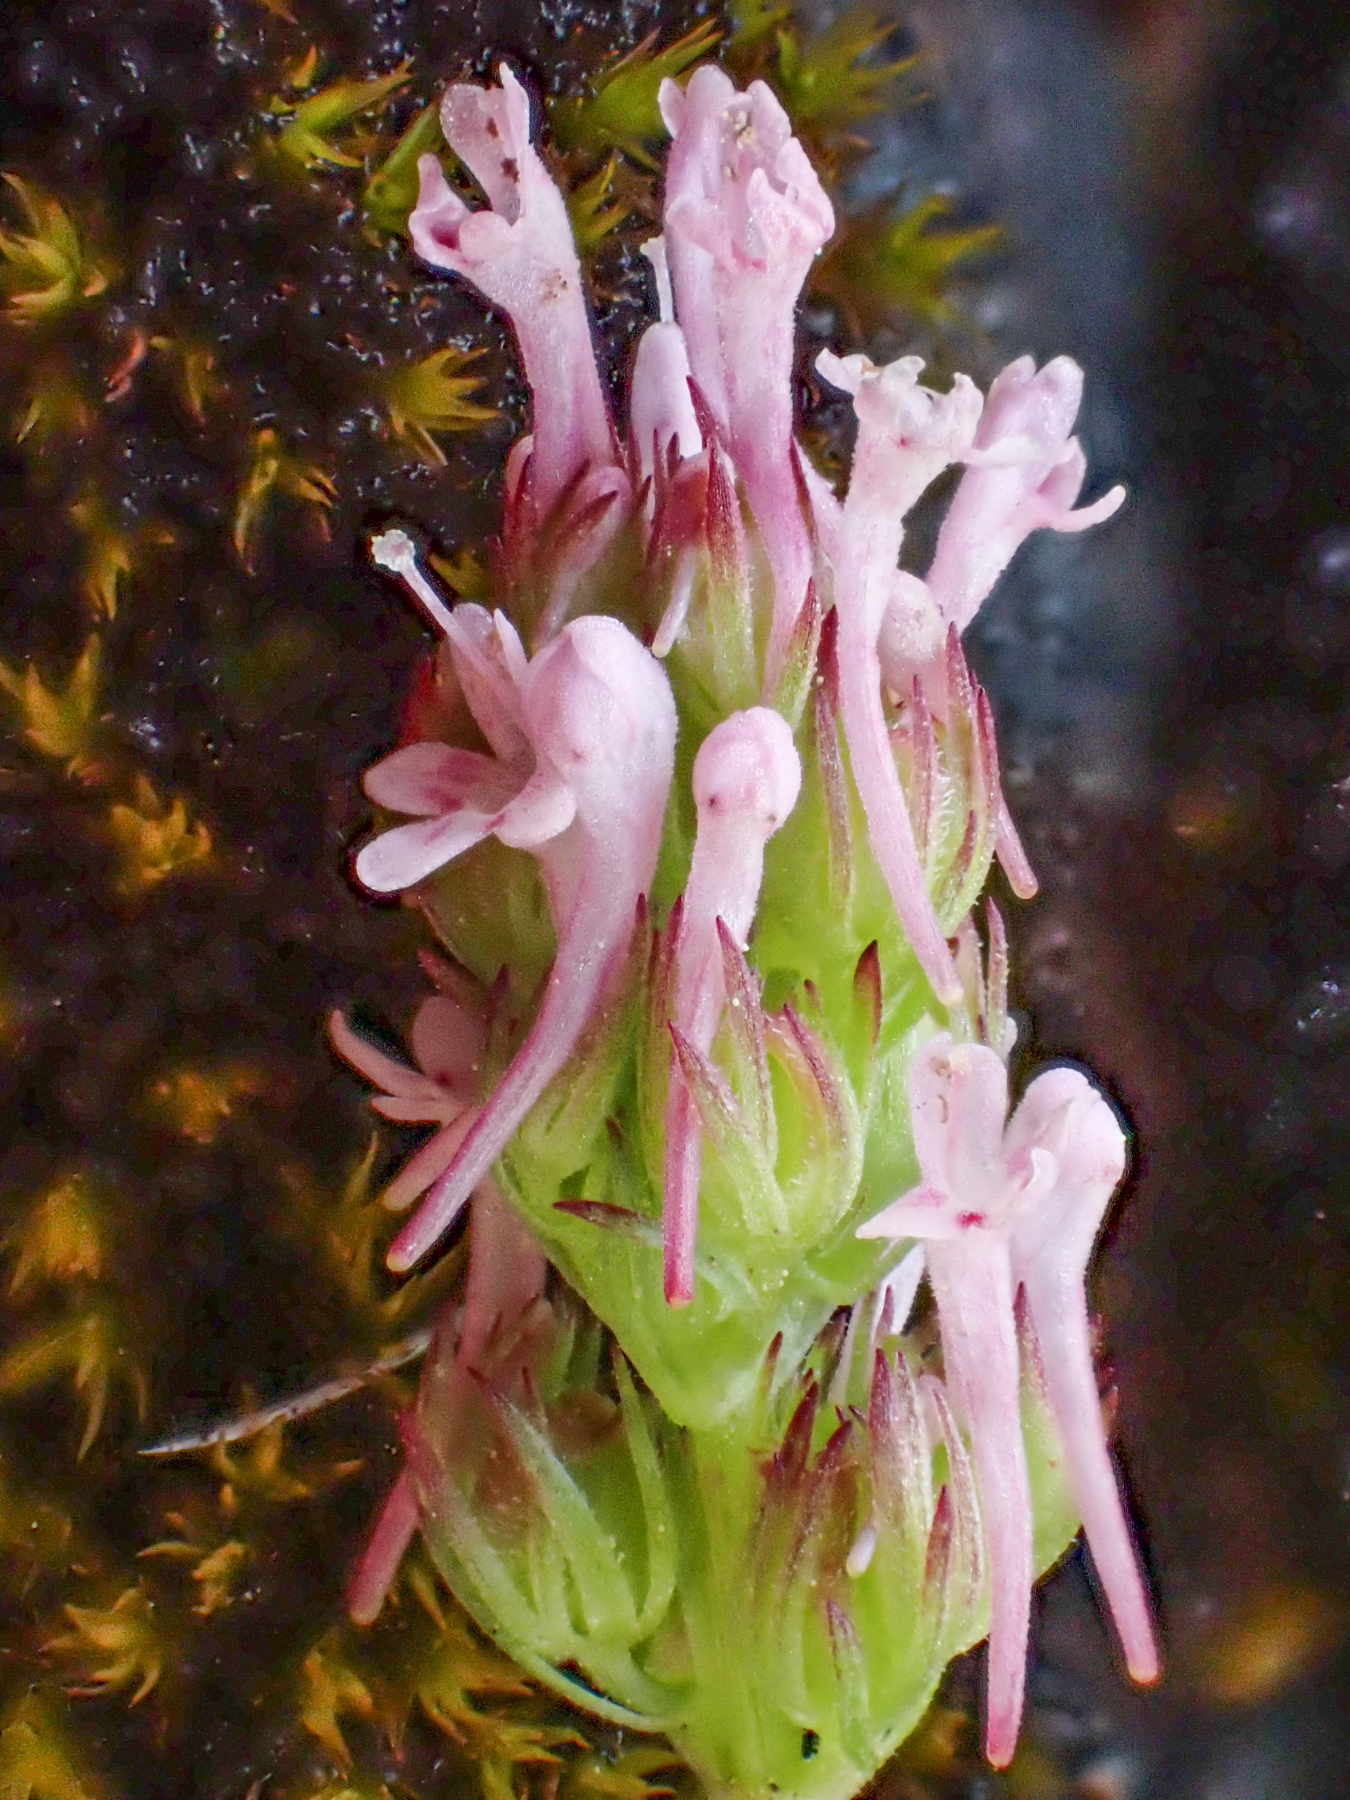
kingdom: Plantae
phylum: Tracheophyta
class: Magnoliopsida
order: Dipsacales
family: Caprifoliaceae
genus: Plectritis
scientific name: Plectritis ciliosa
